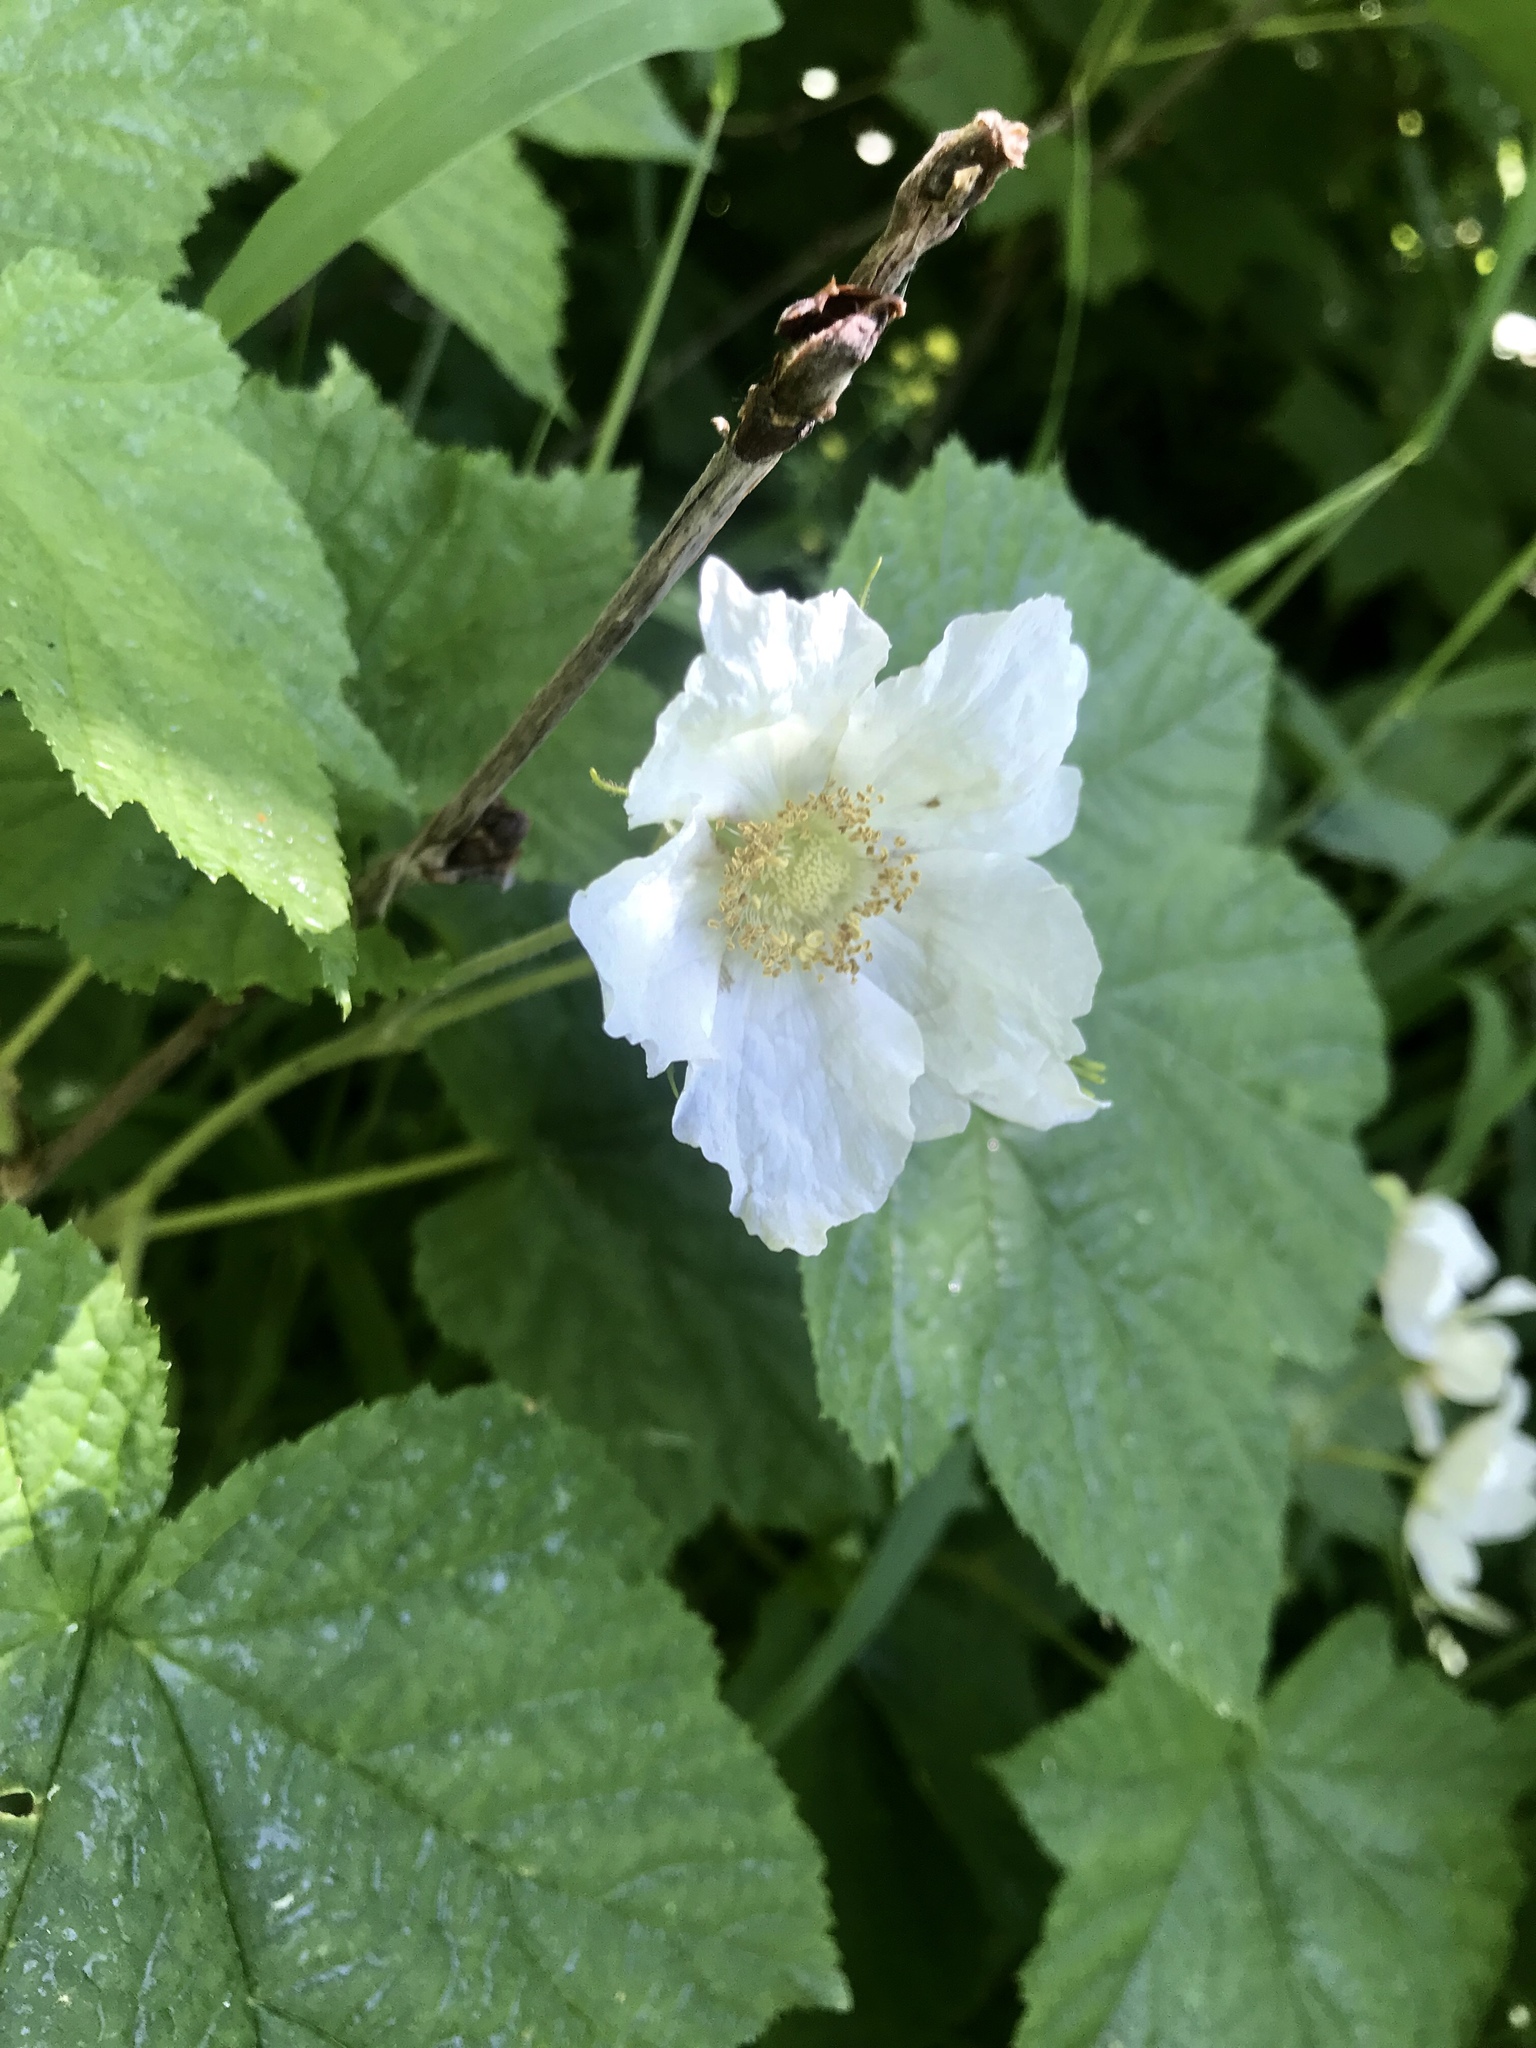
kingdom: Plantae
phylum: Tracheophyta
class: Magnoliopsida
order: Rosales
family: Rosaceae
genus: Rubus
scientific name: Rubus parviflorus
